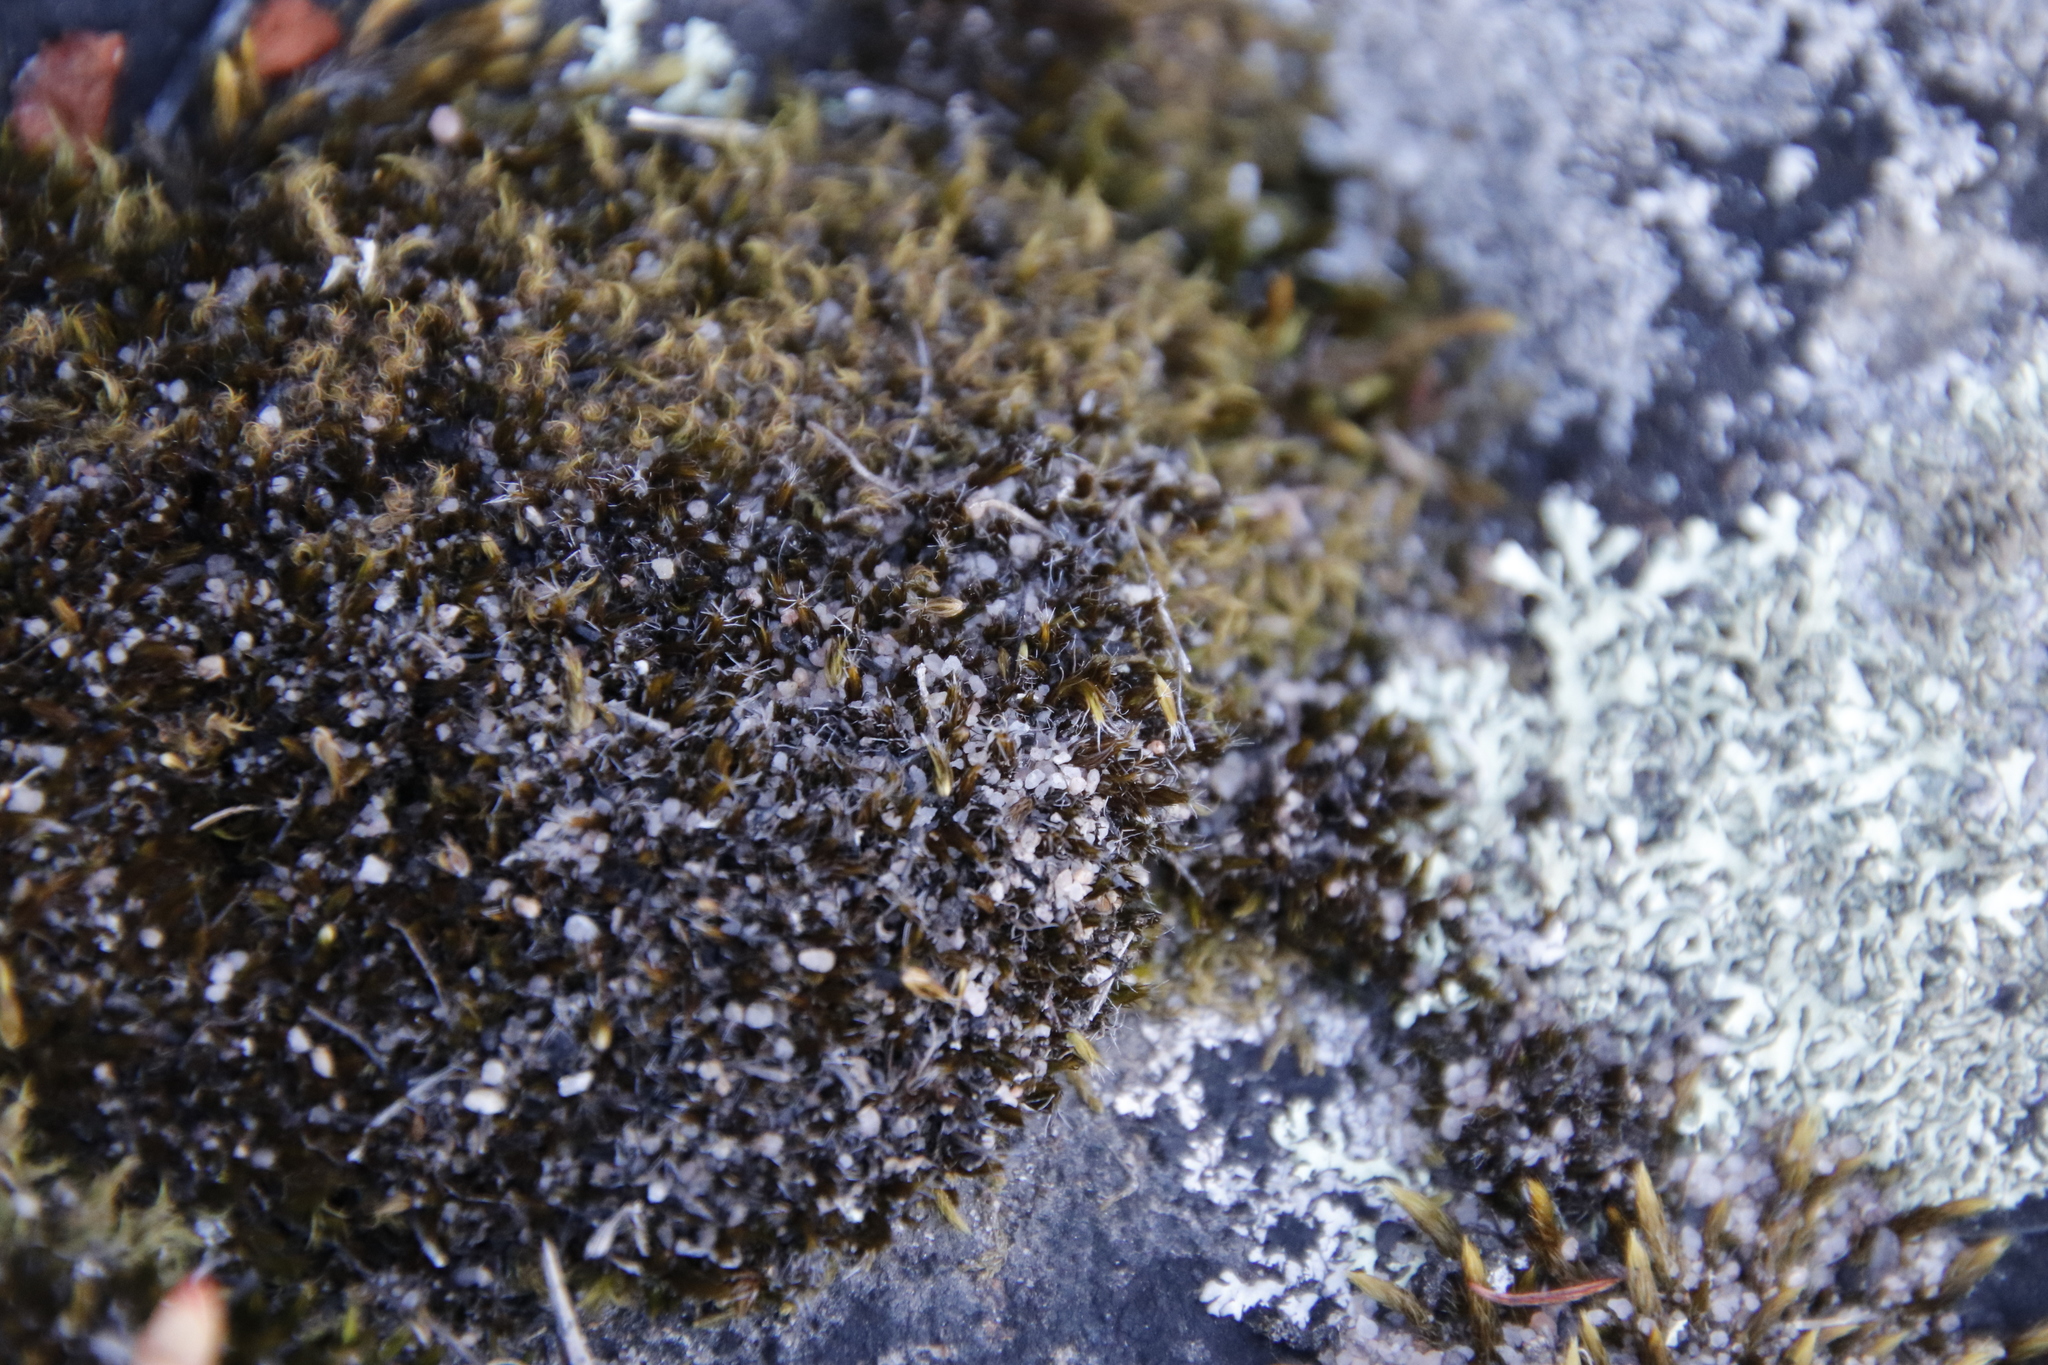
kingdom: Plantae
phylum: Bryophyta
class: Bryopsida
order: Dicranales
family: Leucobryaceae
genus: Campylopus
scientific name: Campylopus introflexus
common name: Heath star moss
